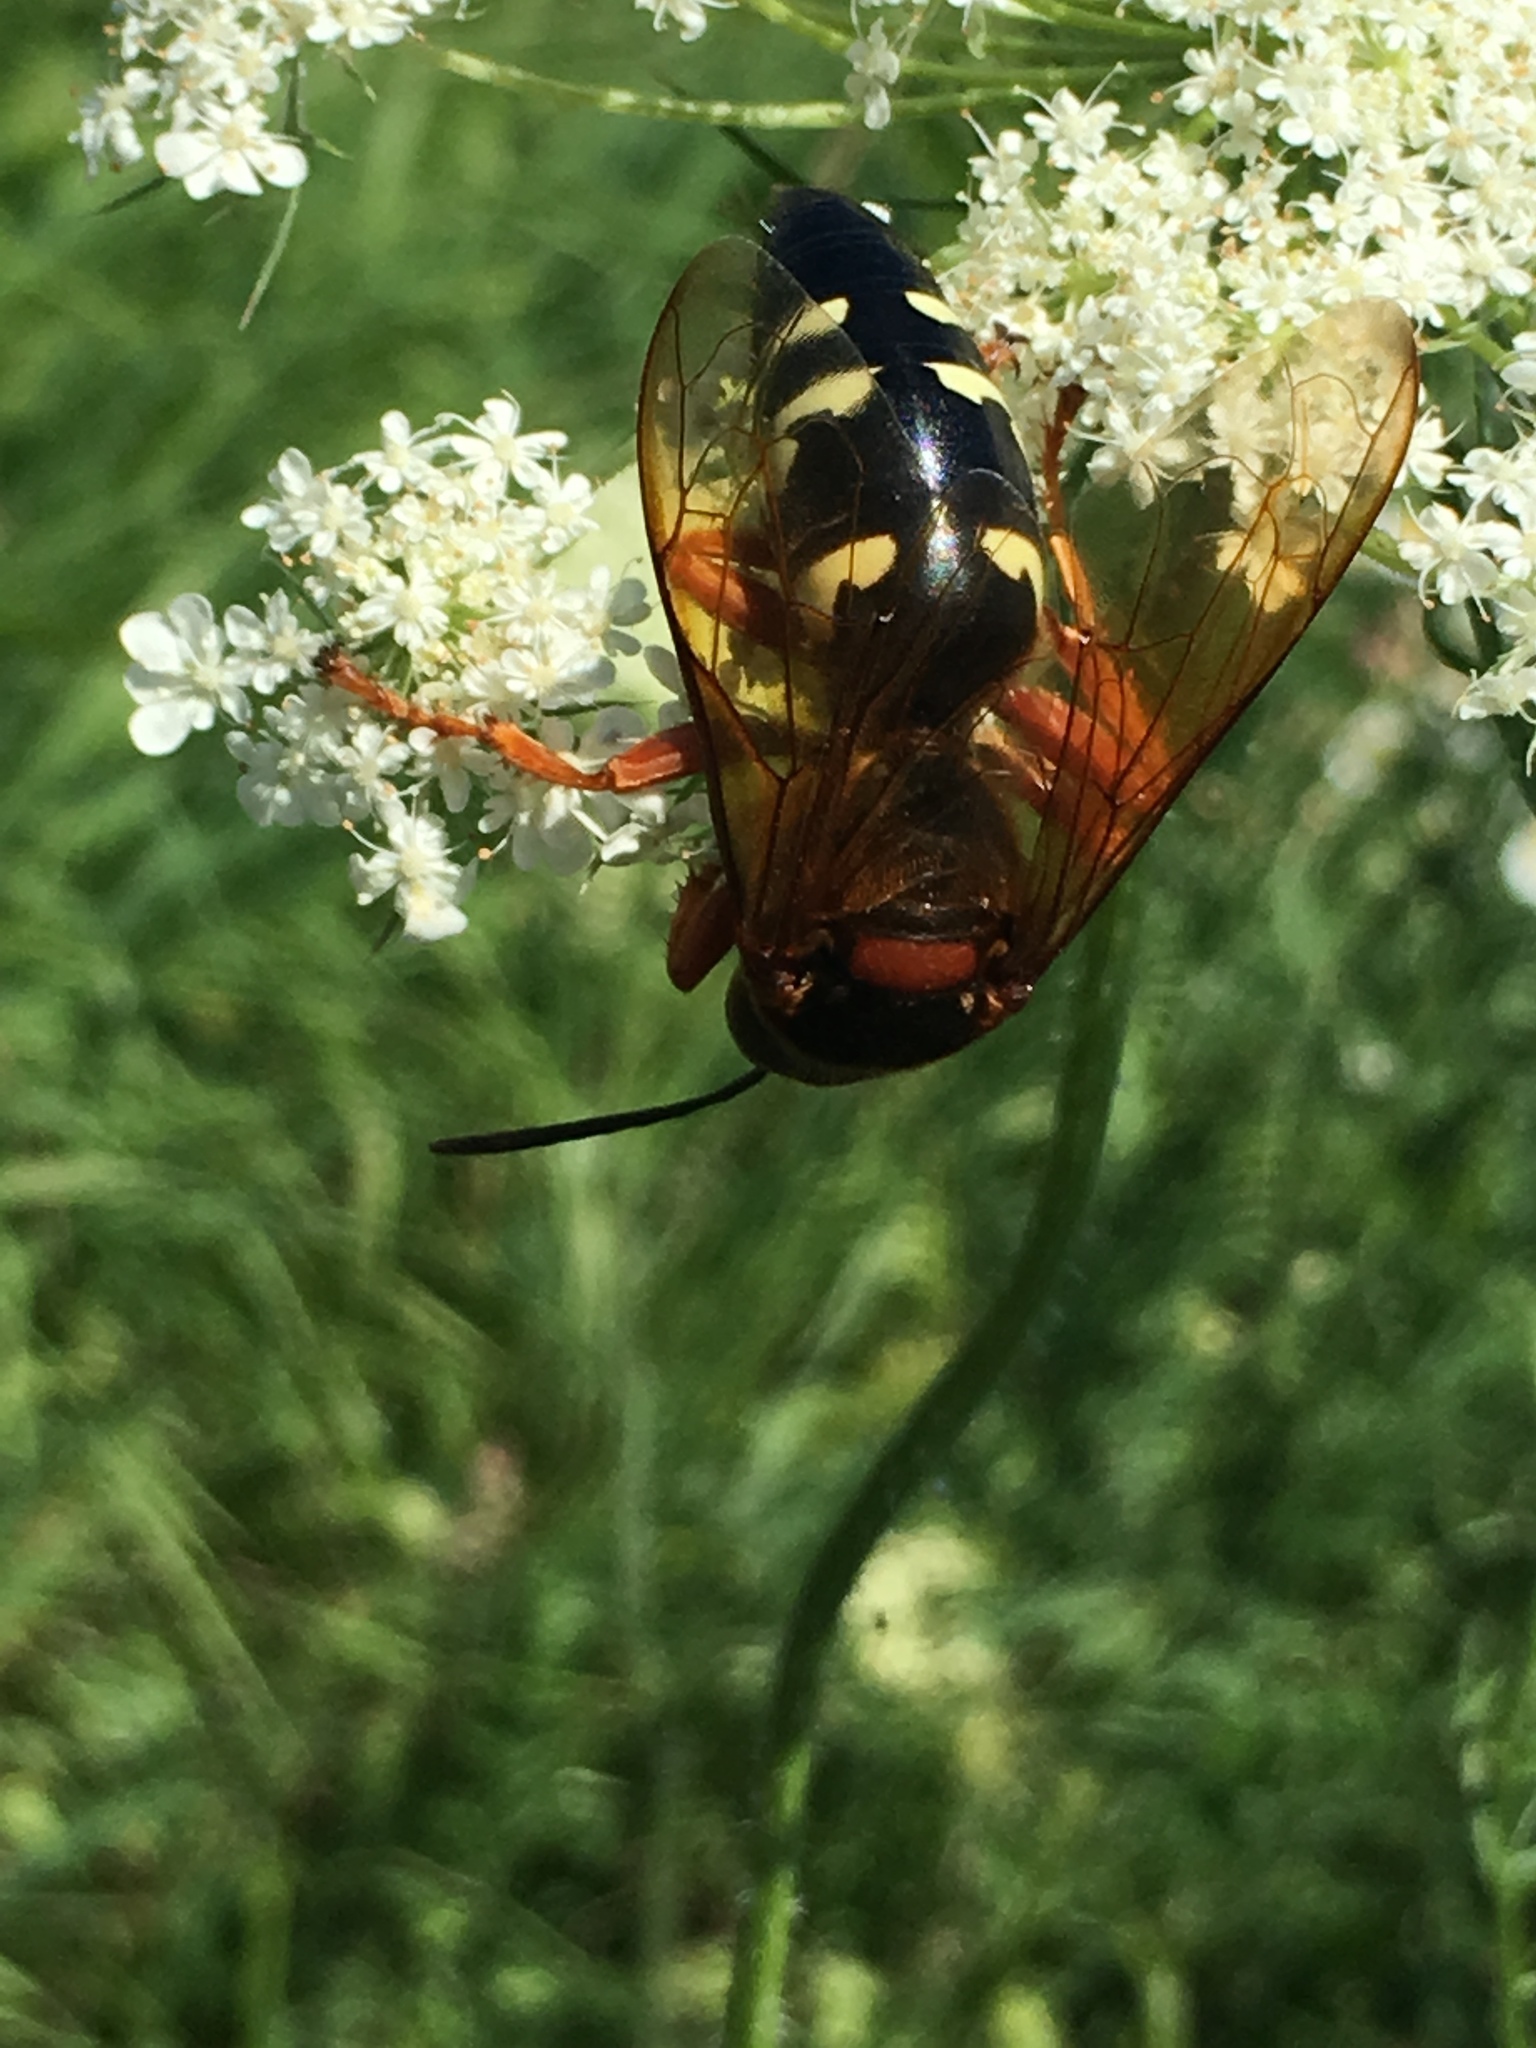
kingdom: Animalia
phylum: Arthropoda
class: Insecta
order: Hymenoptera
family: Crabronidae
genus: Sphecius
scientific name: Sphecius speciosus
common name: Cicada killer
